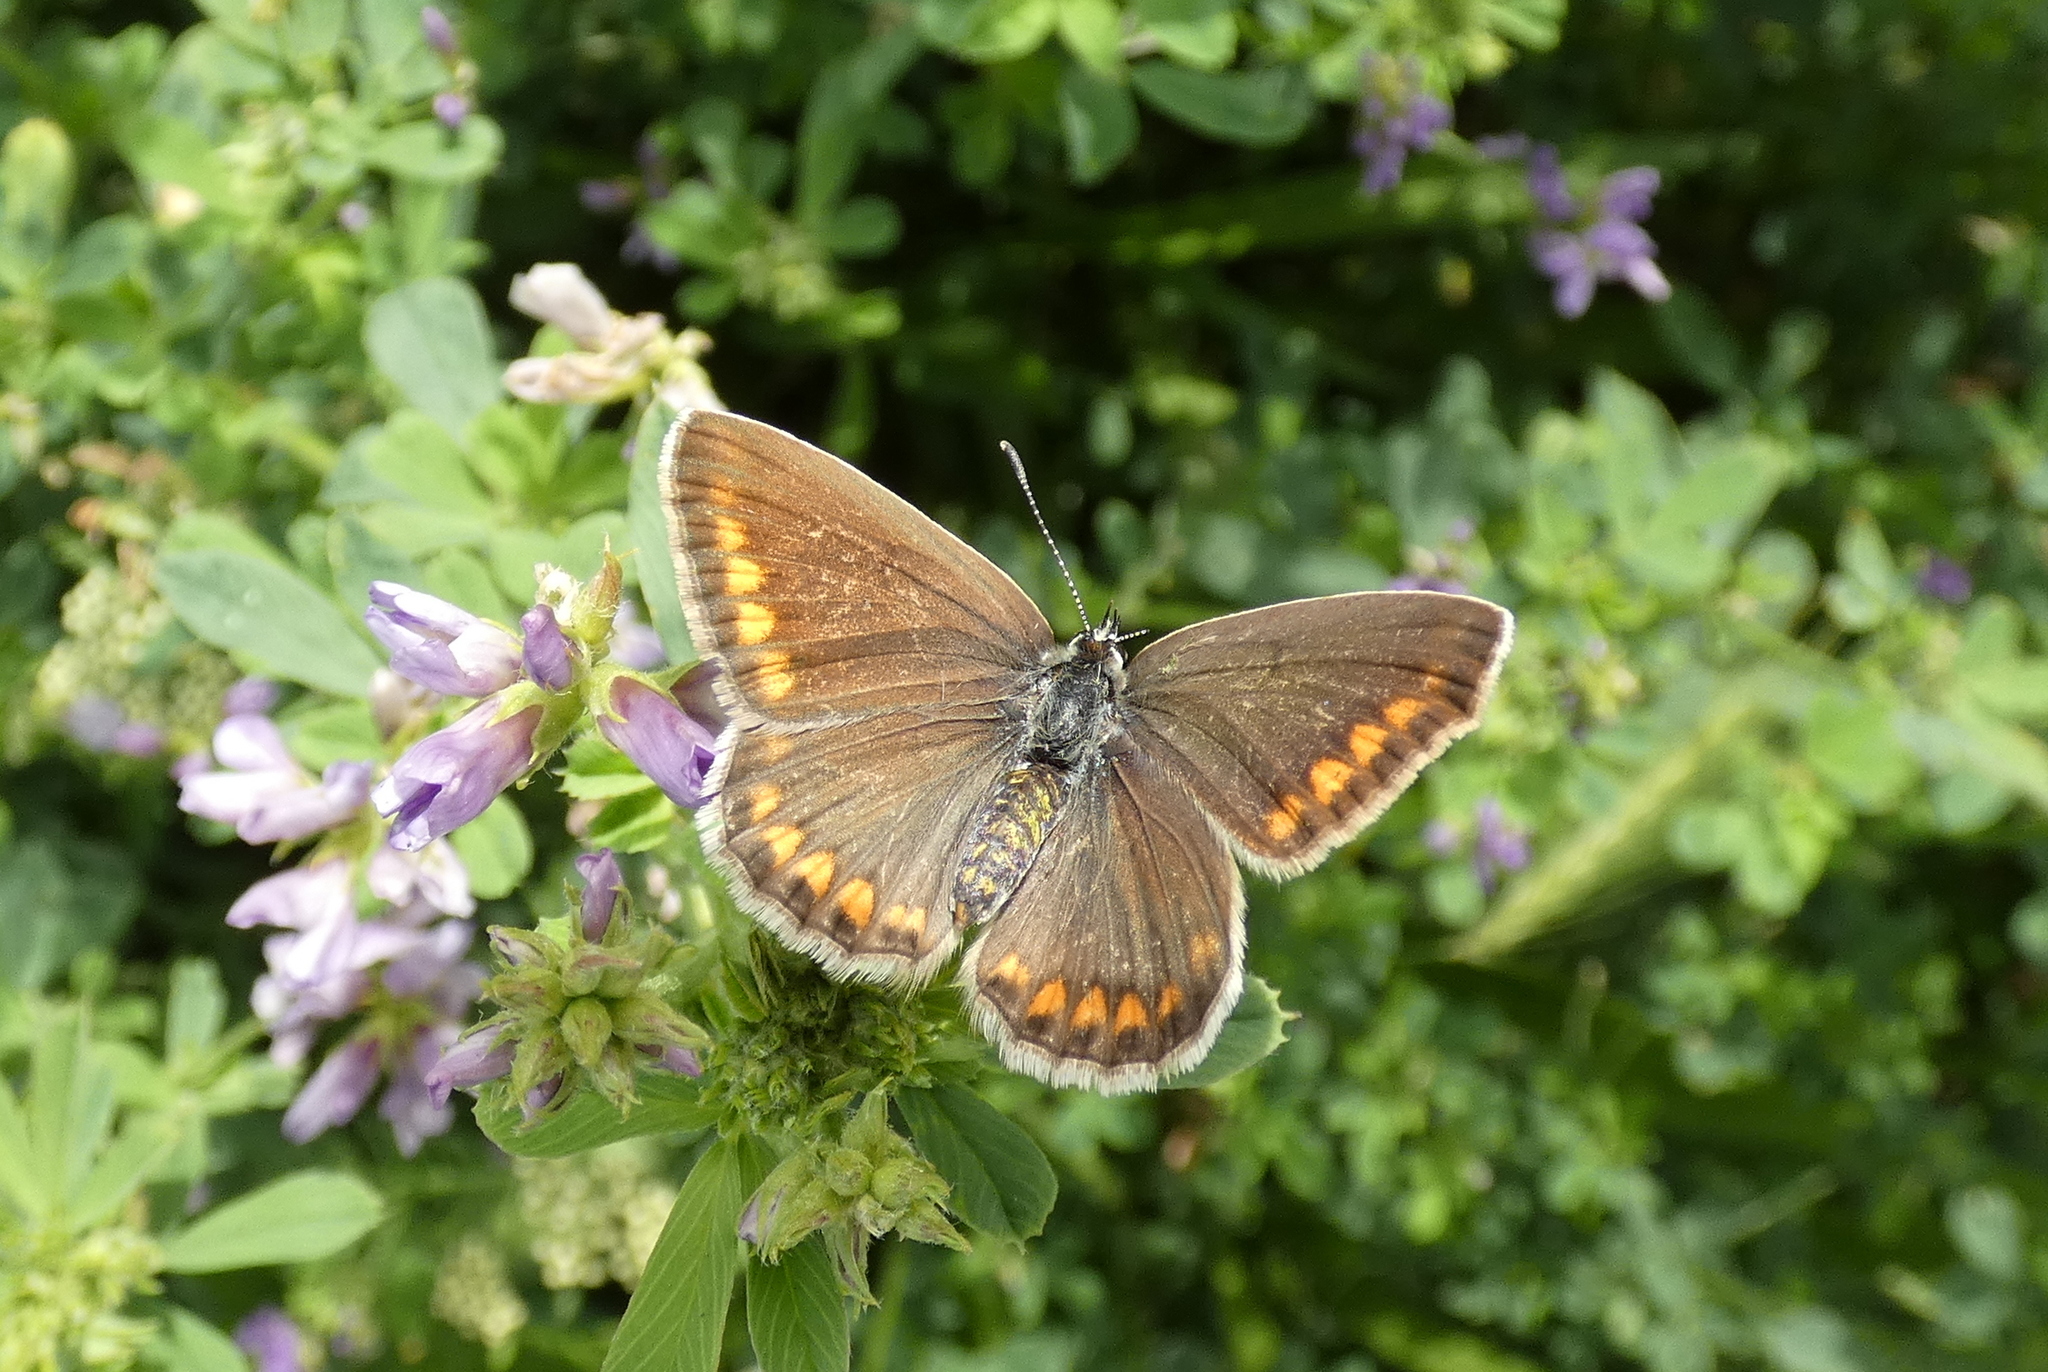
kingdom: Animalia
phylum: Arthropoda
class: Insecta
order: Lepidoptera
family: Lycaenidae
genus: Polyommatus
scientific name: Polyommatus icarus
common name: Common blue
